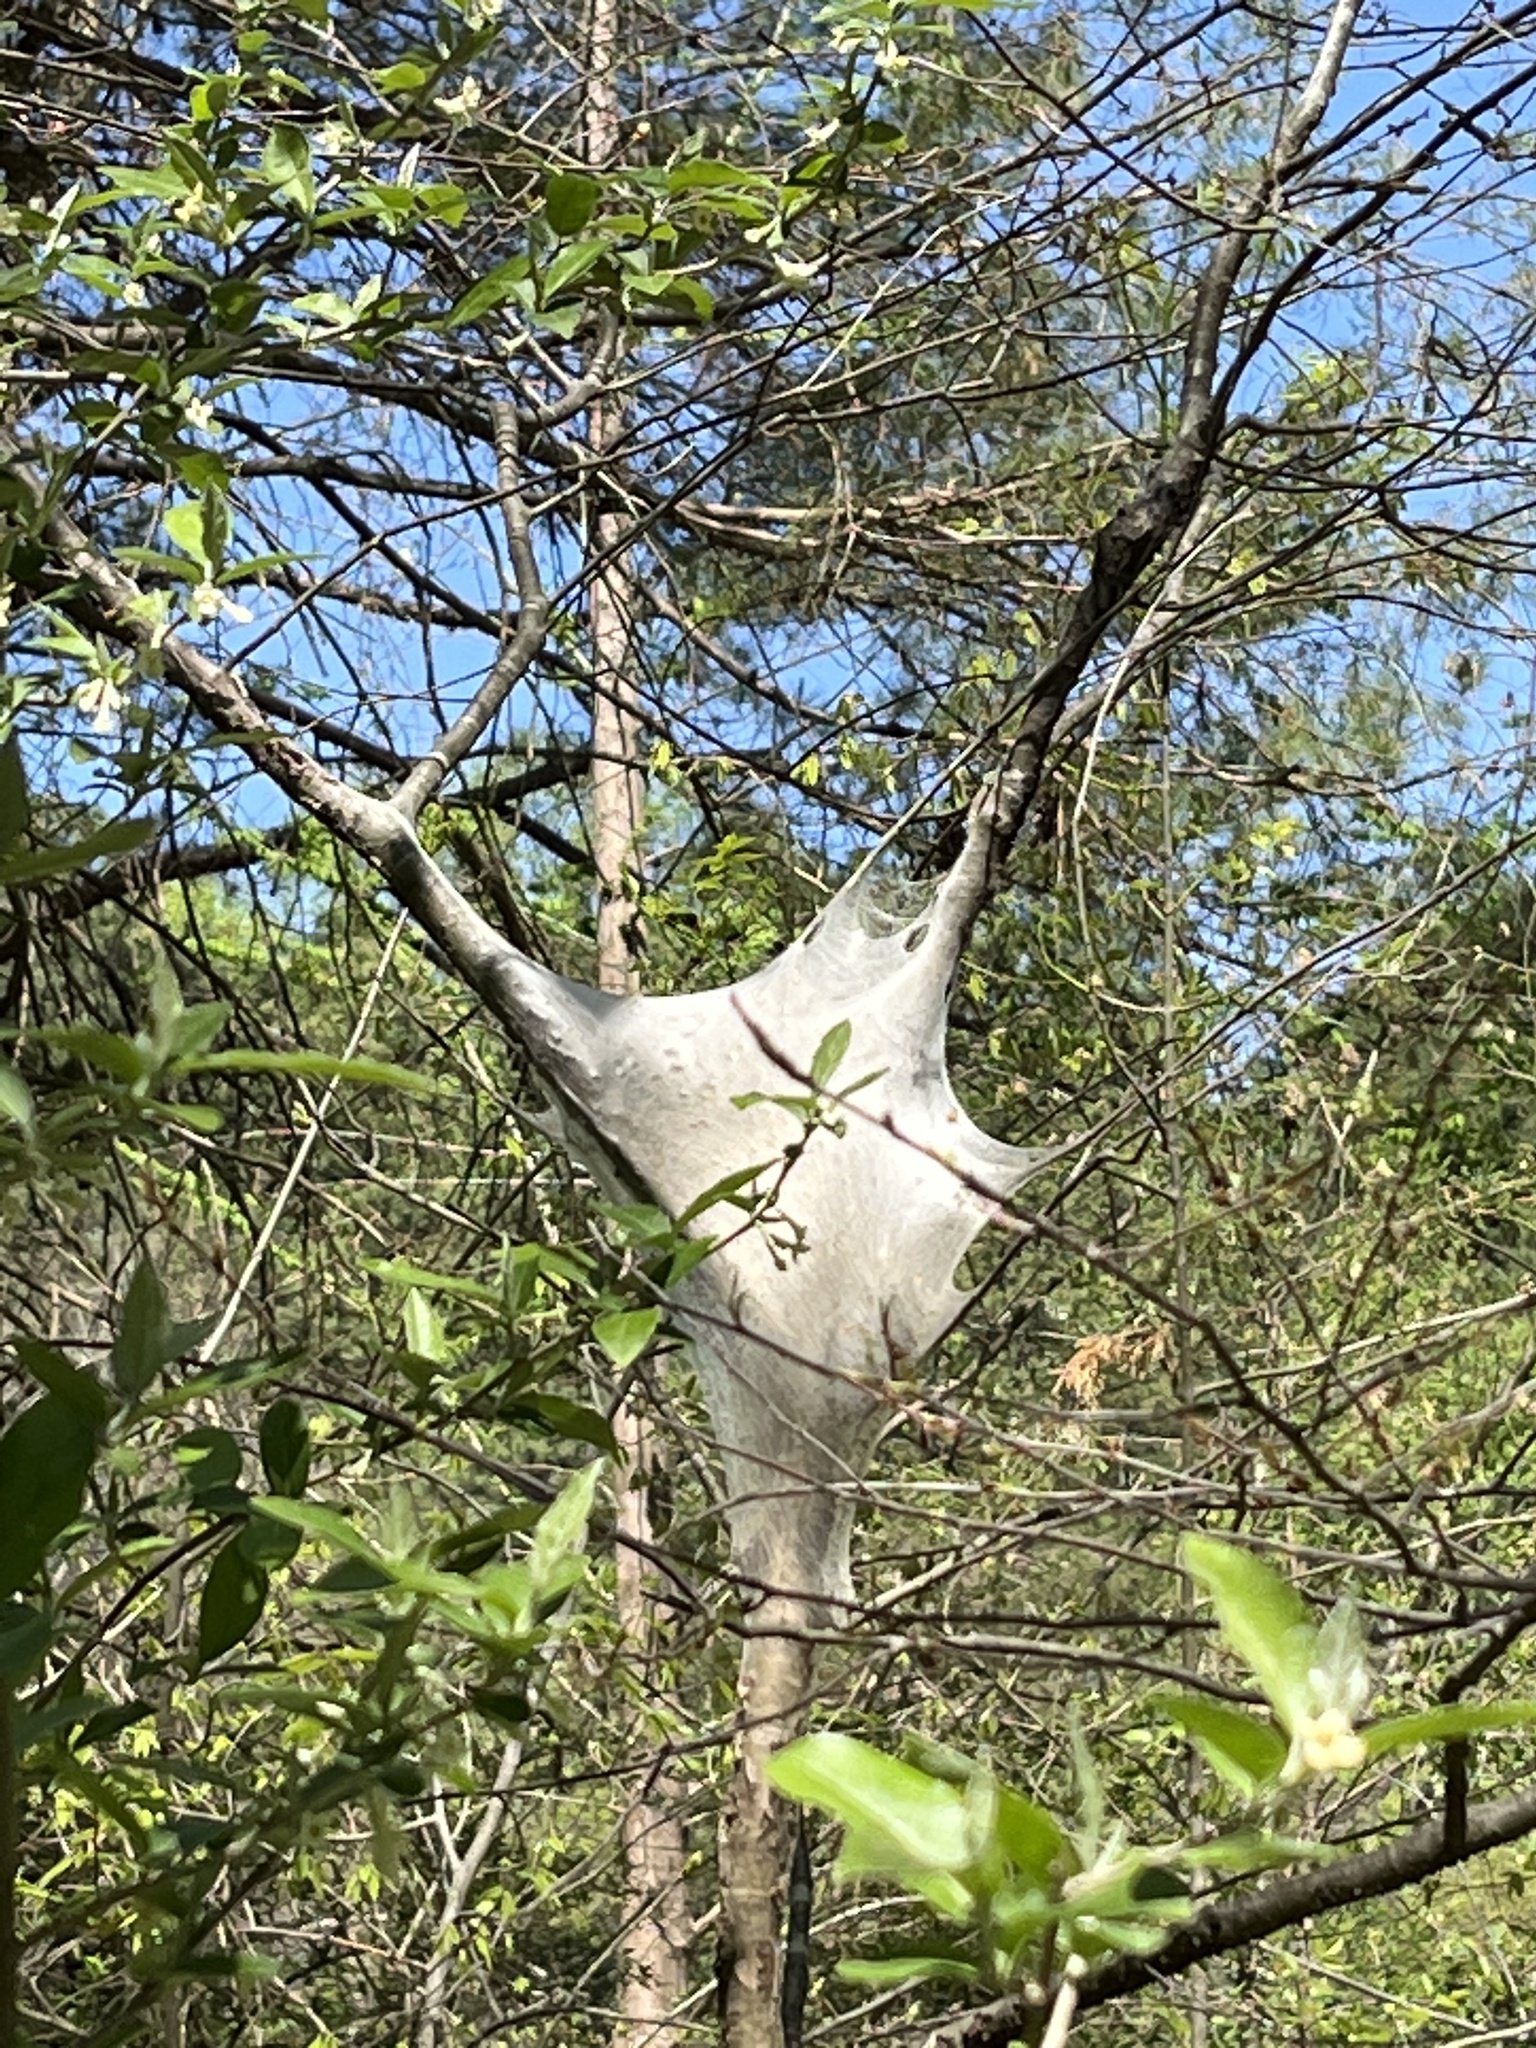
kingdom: Animalia
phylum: Arthropoda
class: Insecta
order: Lepidoptera
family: Lasiocampidae
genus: Malacosoma
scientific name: Malacosoma americana
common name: Eastern tent caterpillar moth
